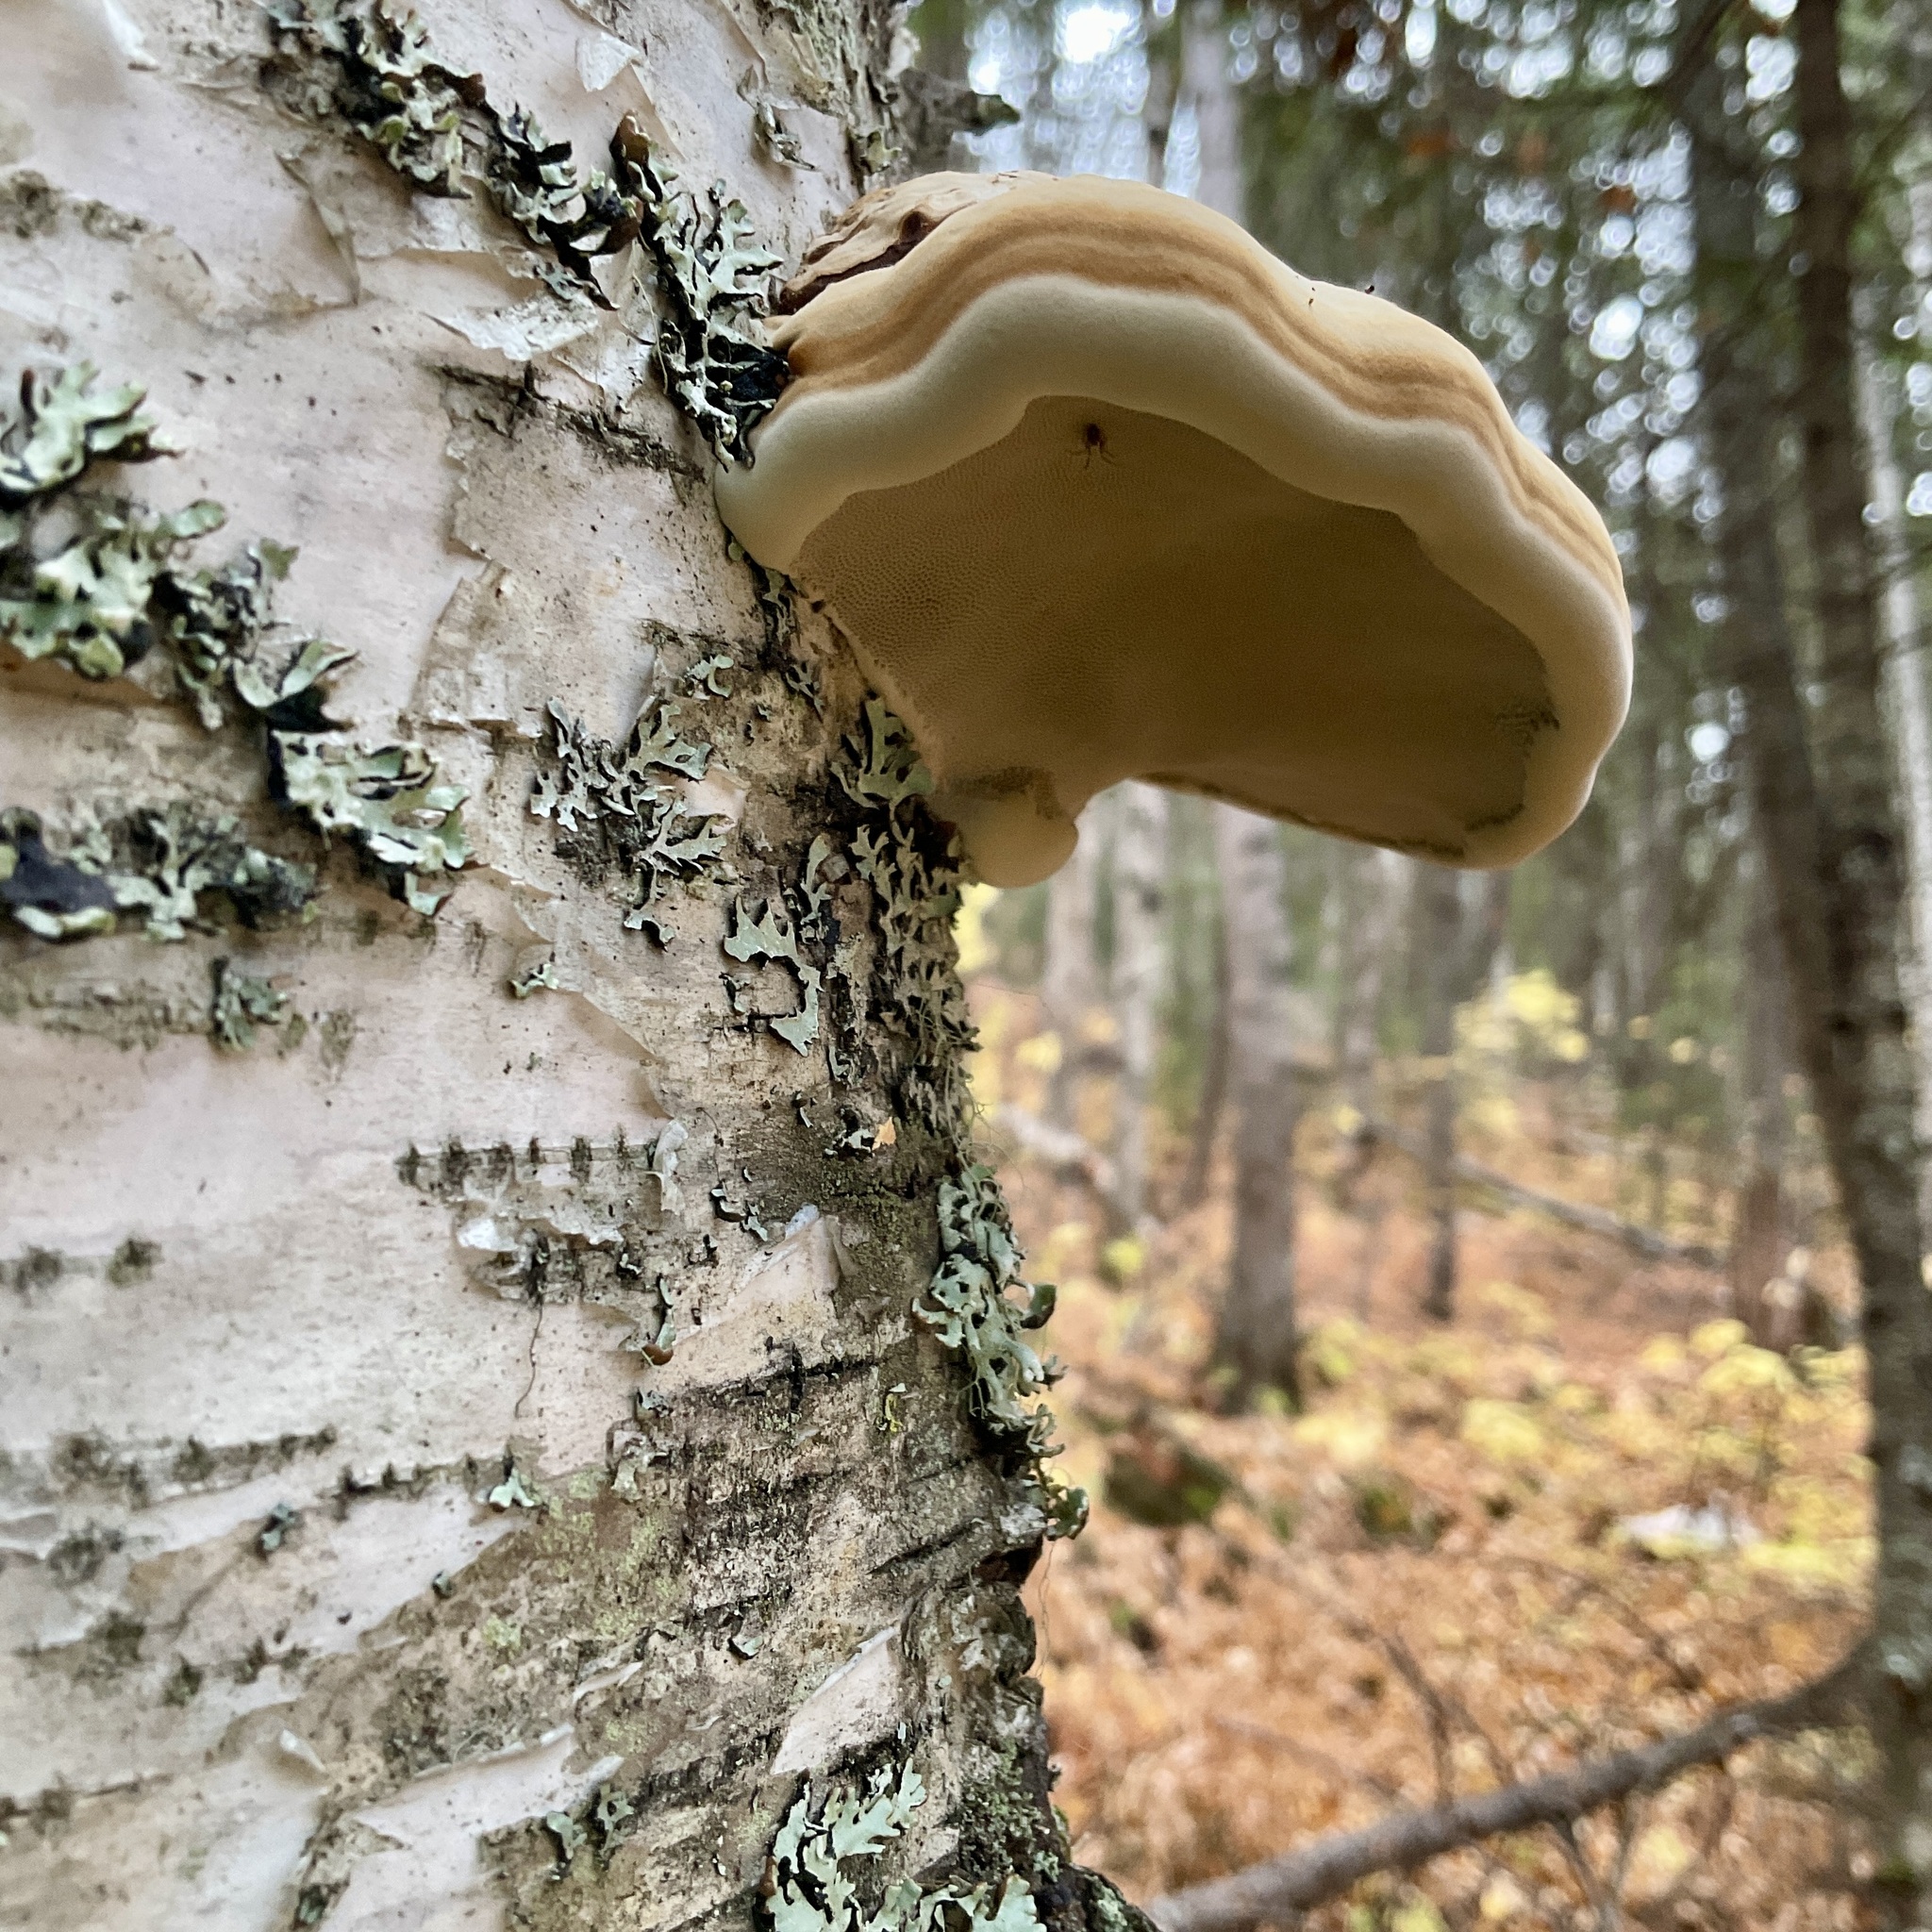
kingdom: Fungi
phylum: Basidiomycota
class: Agaricomycetes
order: Polyporales
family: Polyporaceae
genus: Fomes
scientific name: Fomes fomentarius
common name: Hoof fungus
